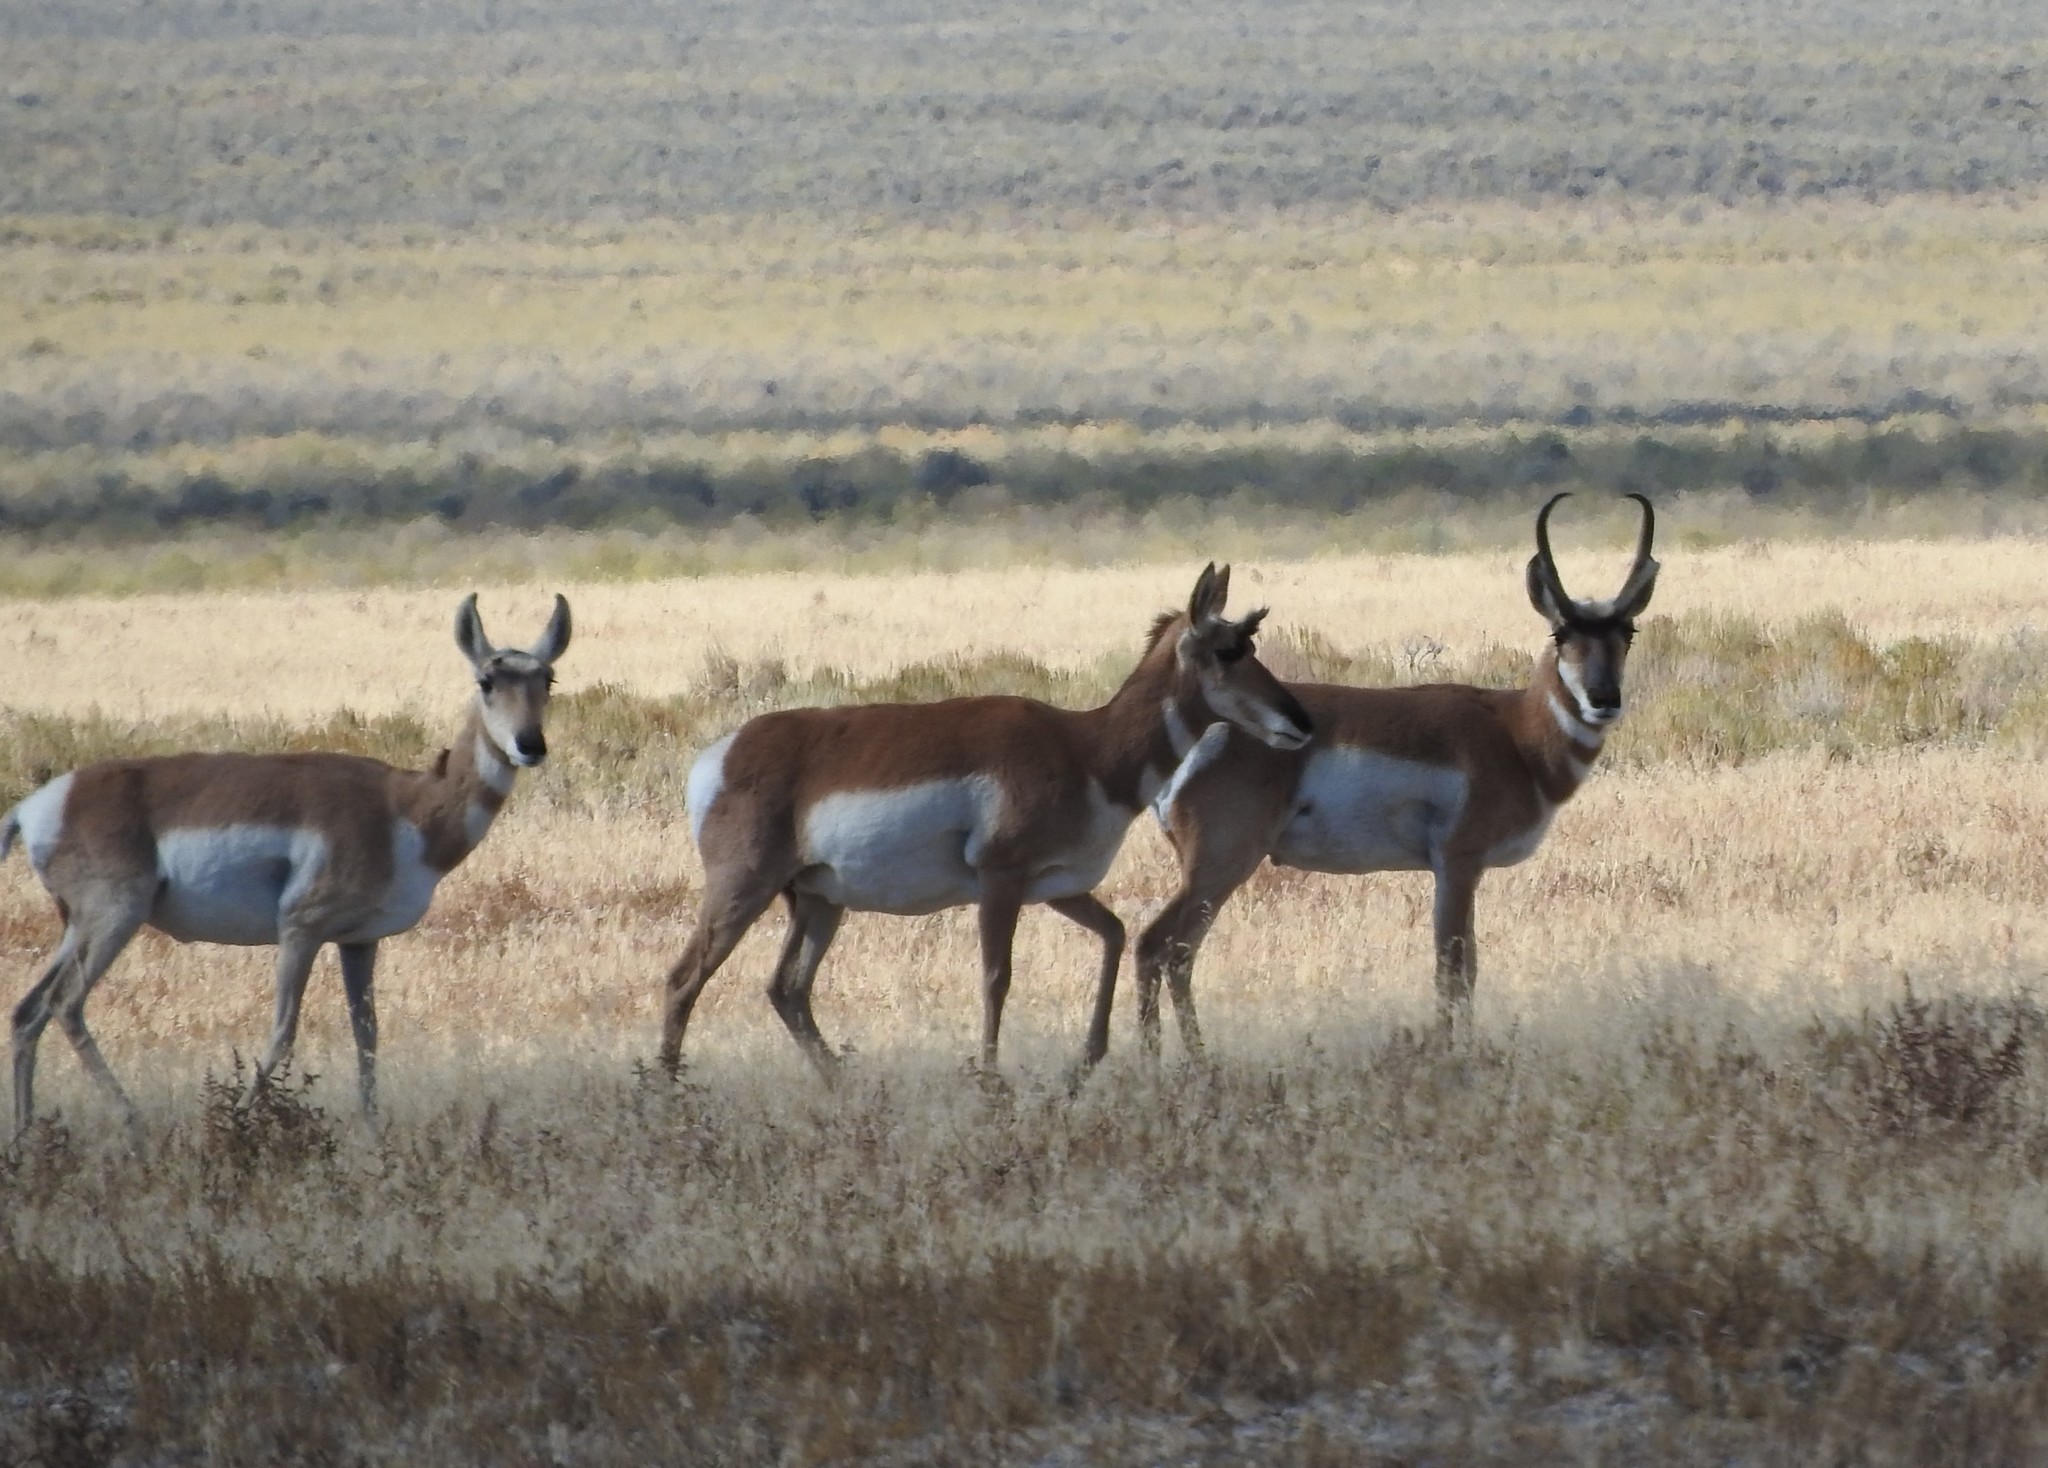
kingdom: Animalia
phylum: Chordata
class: Mammalia
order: Artiodactyla
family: Antilocapridae
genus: Antilocapra
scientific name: Antilocapra americana
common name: Pronghorn
